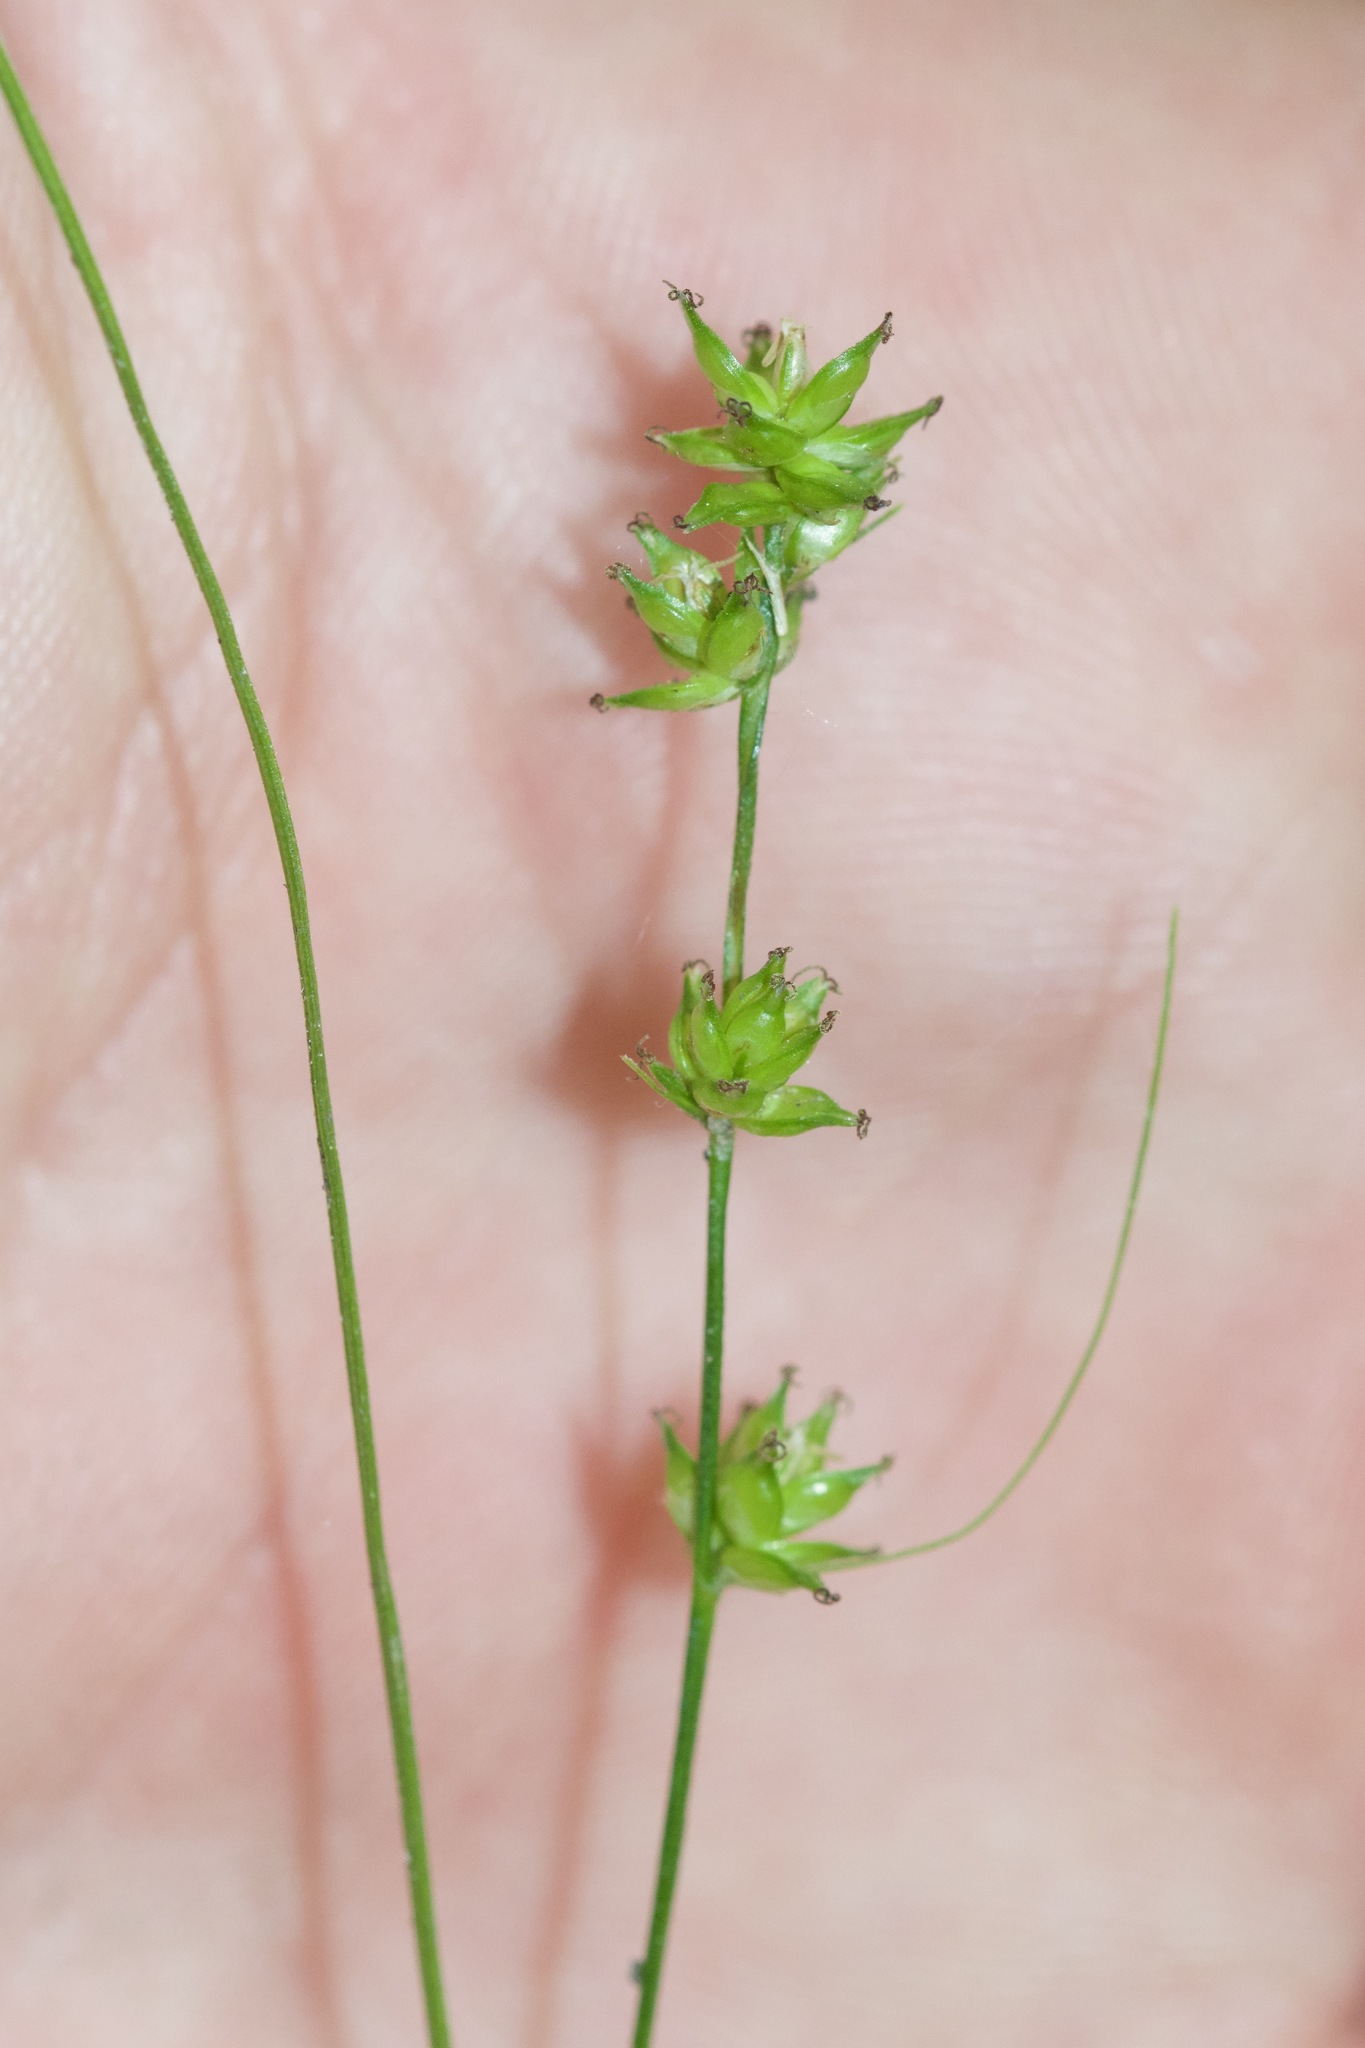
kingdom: Plantae
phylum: Tracheophyta
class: Liliopsida
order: Poales
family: Cyperaceae
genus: Carex
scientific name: Carex rosea
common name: Curly-styled wood sedge
